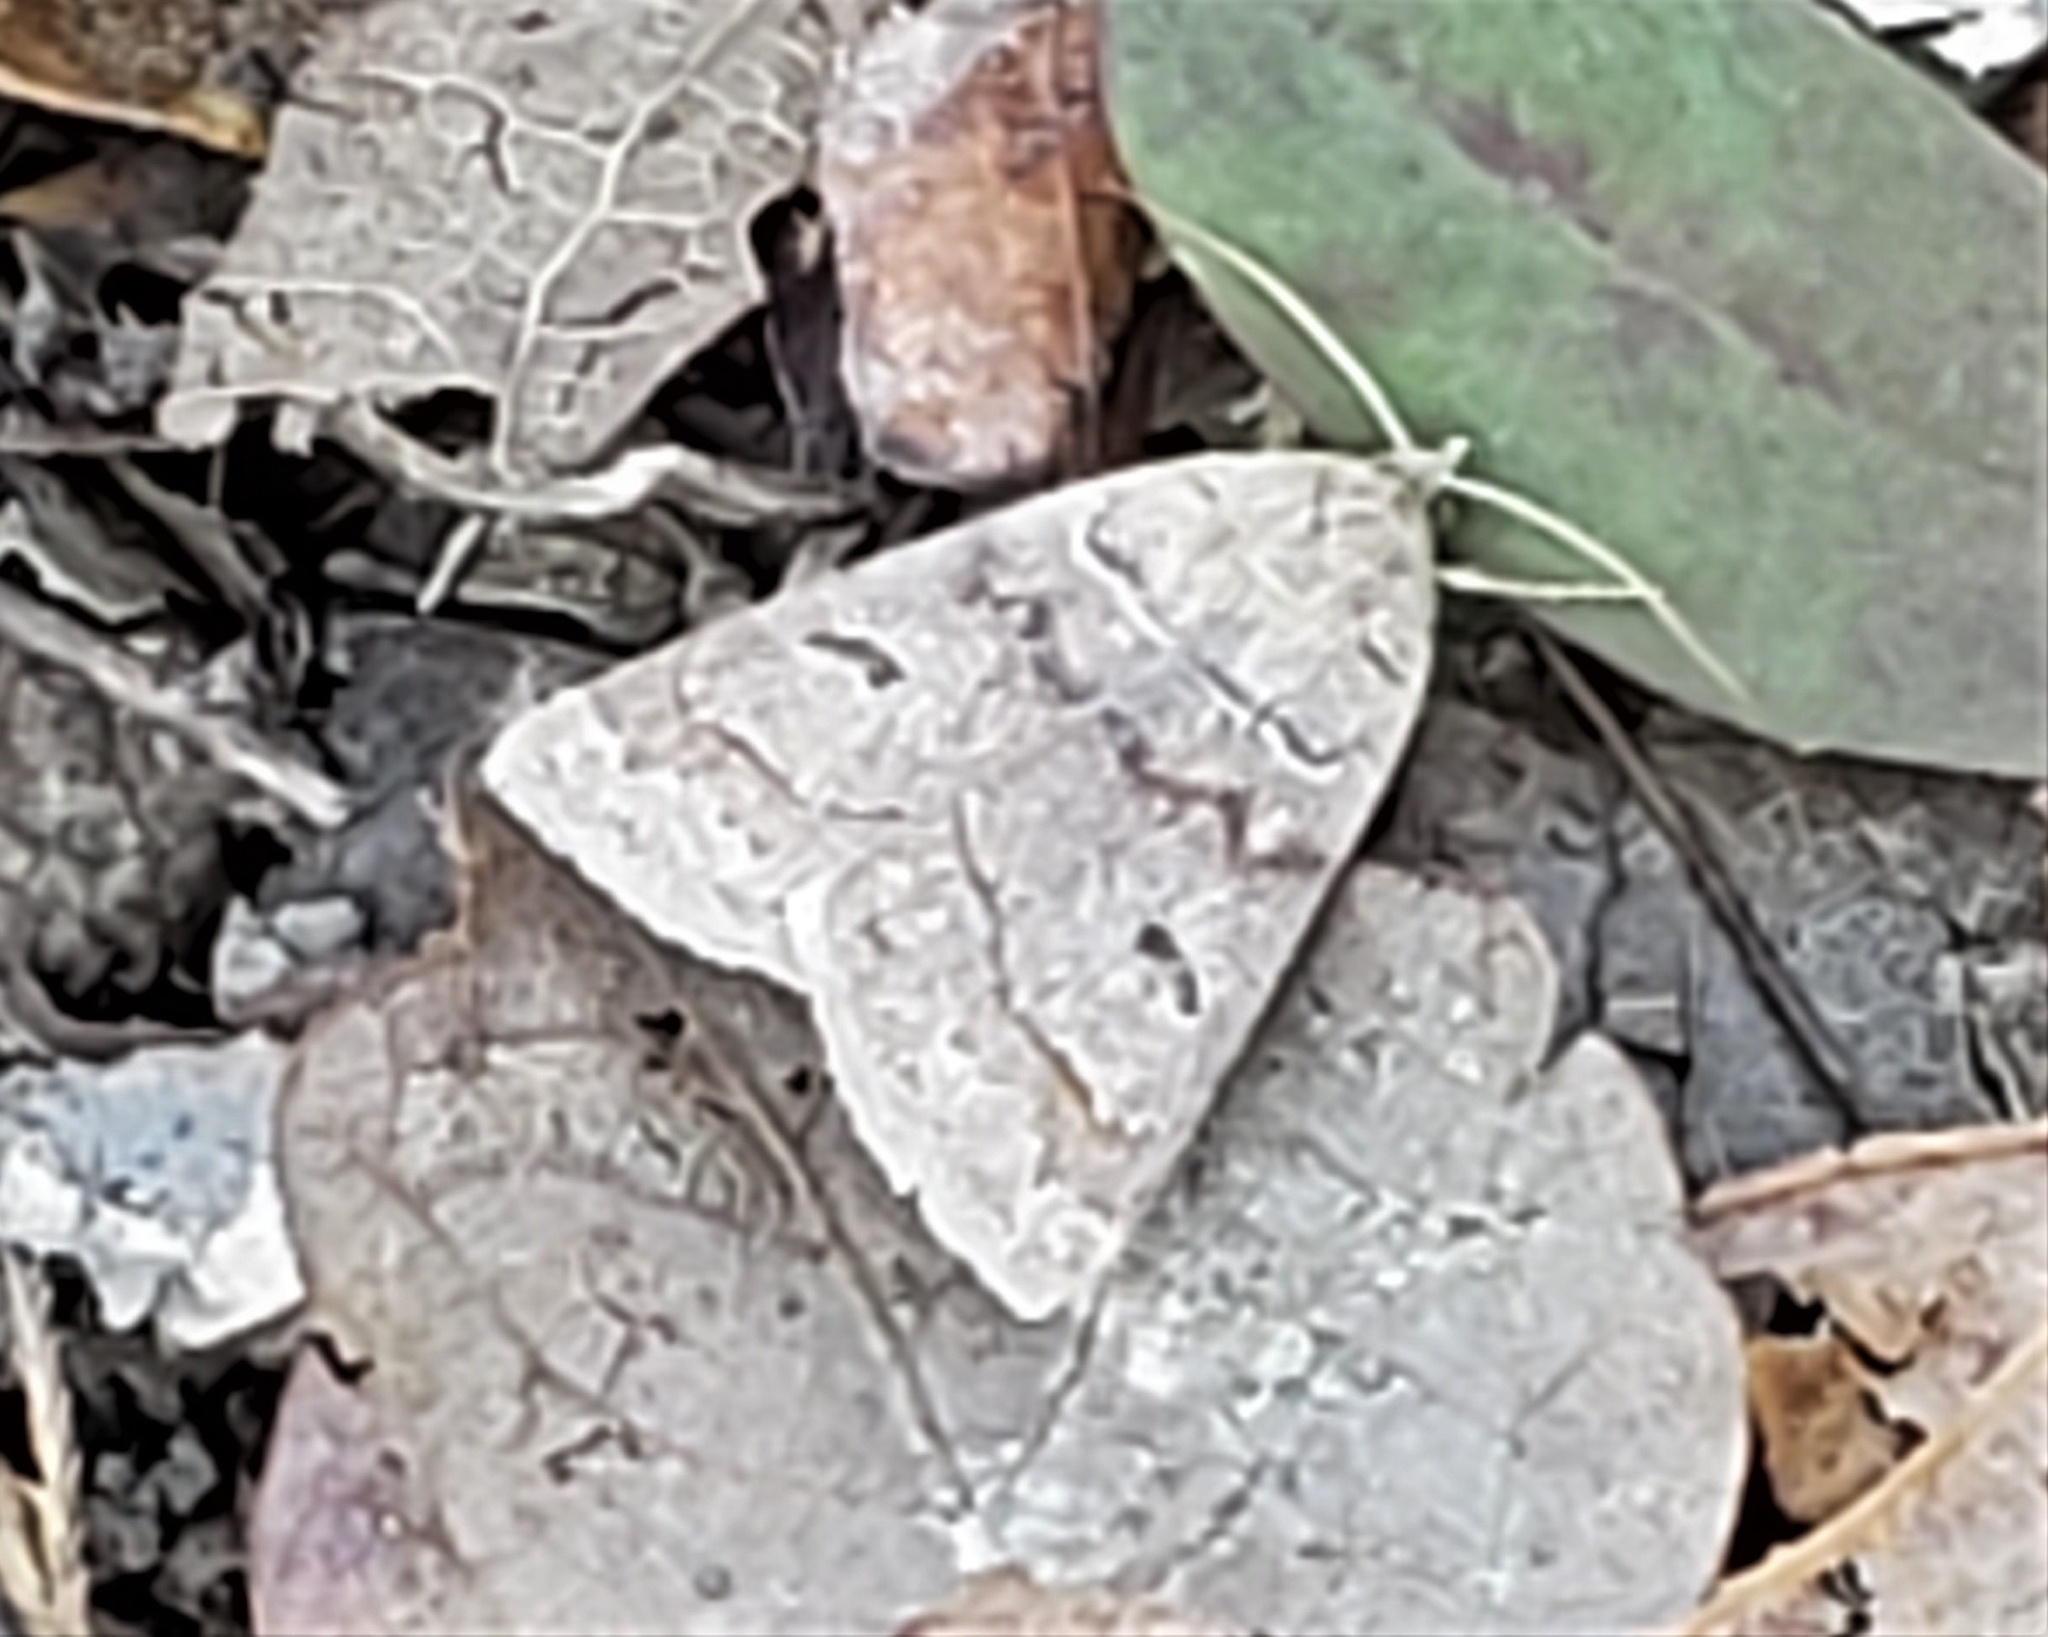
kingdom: Animalia
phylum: Arthropoda
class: Insecta
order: Lepidoptera
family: Erebidae
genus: Phoberia
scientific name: Phoberia atomaris
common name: Common oak moth
